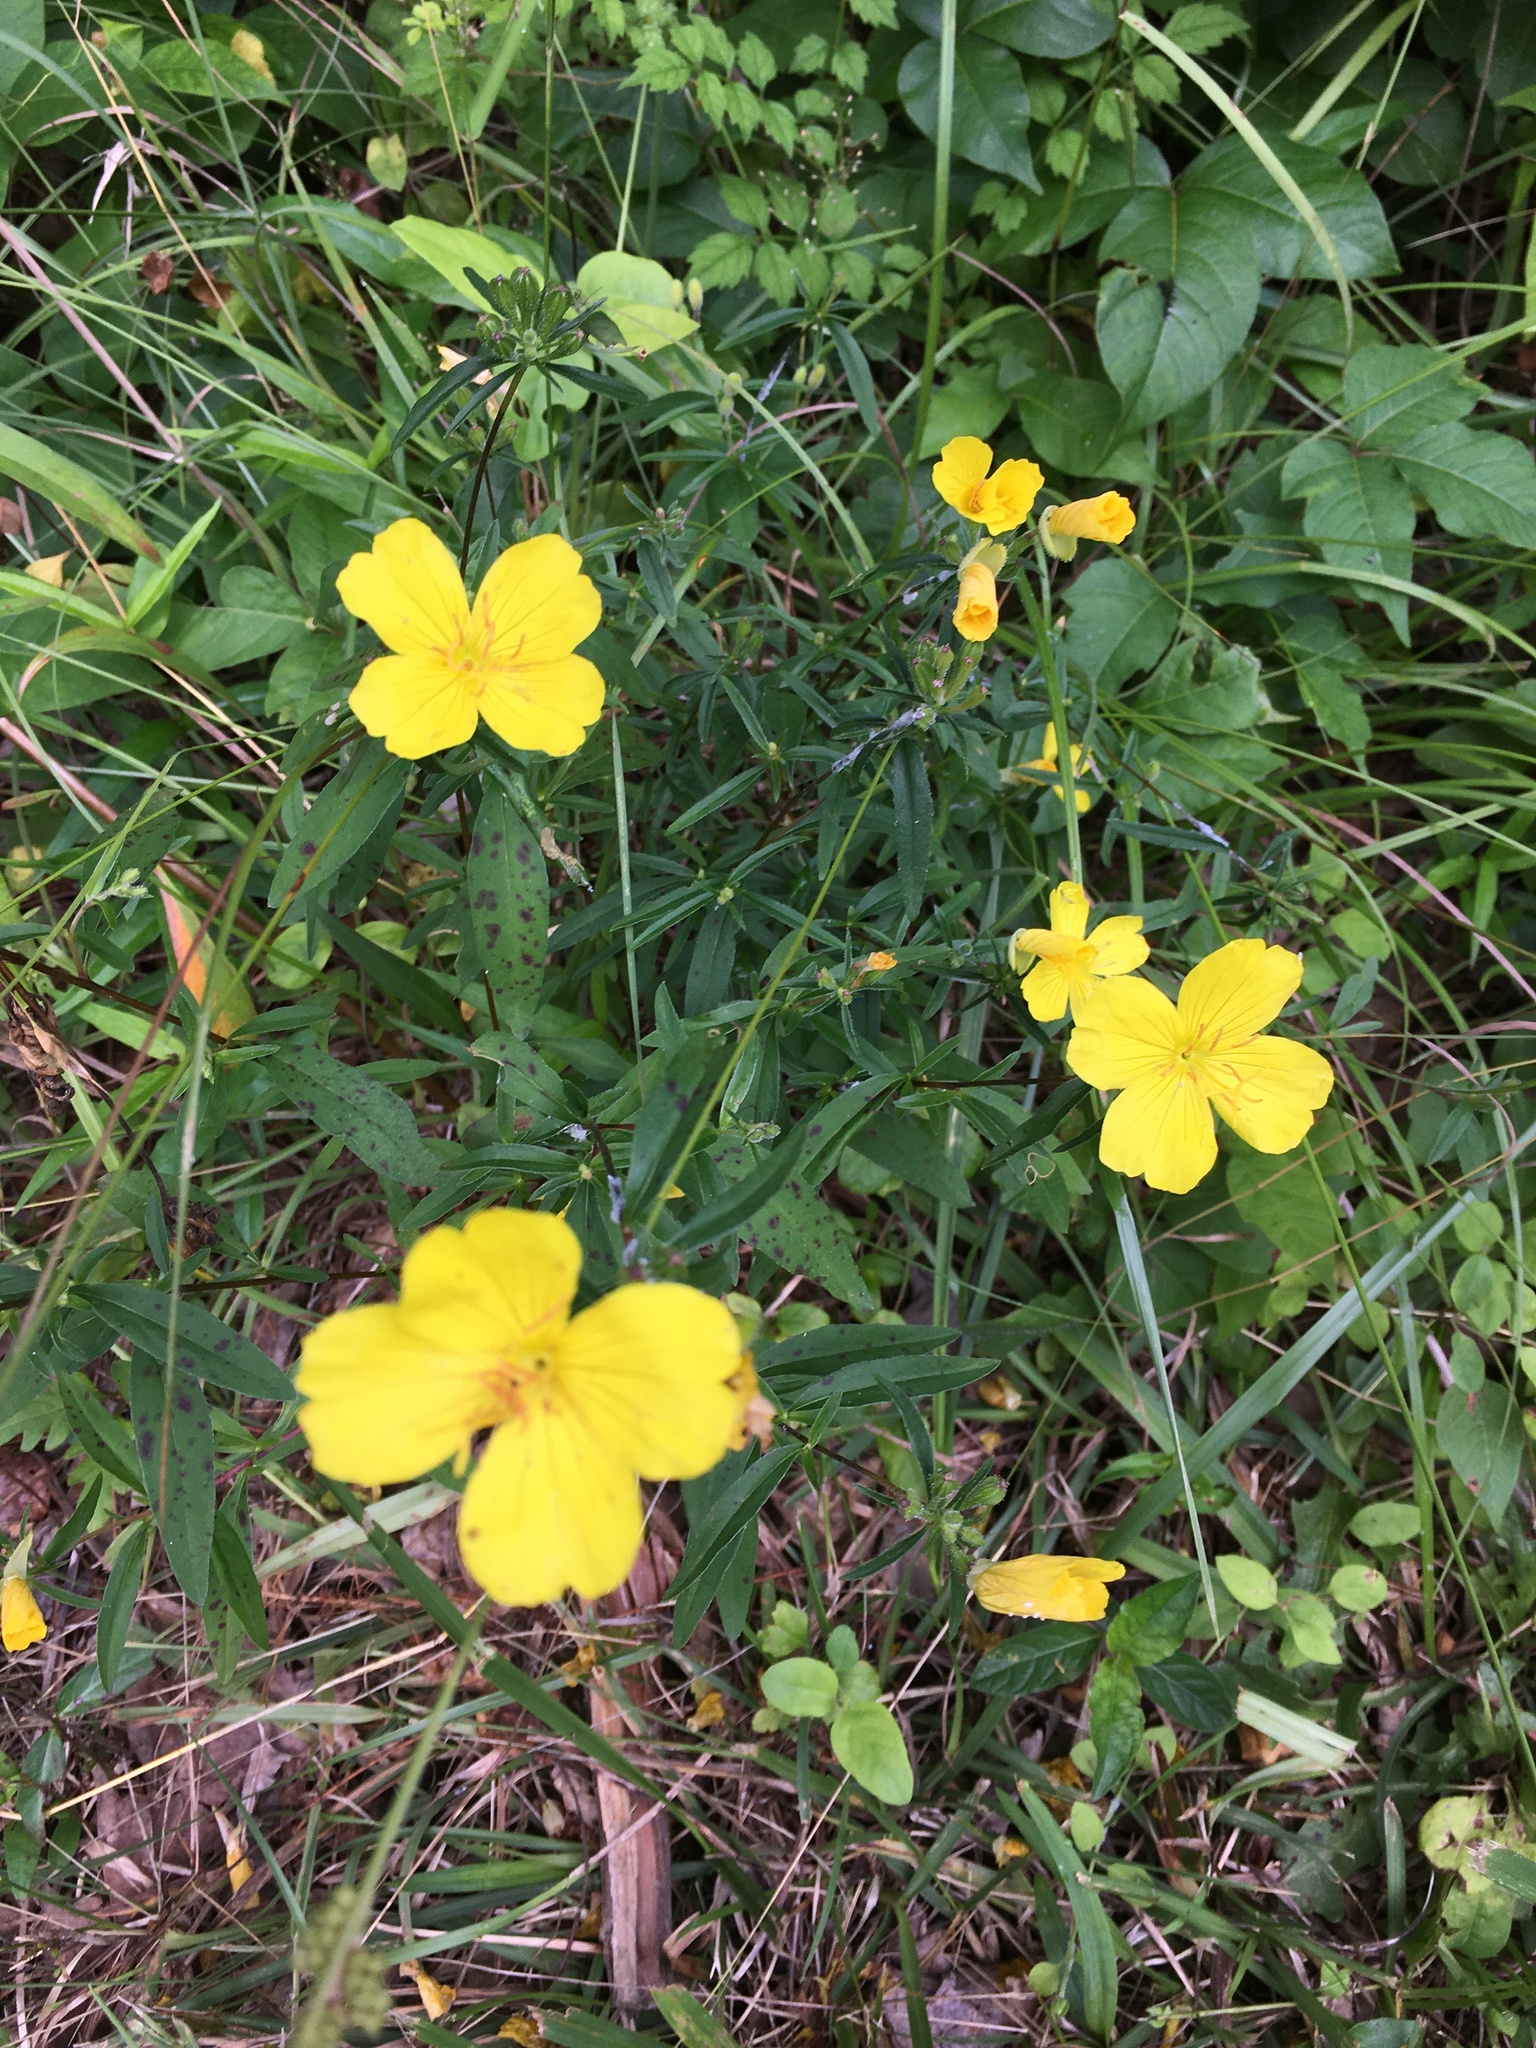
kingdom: Plantae
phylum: Tracheophyta
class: Magnoliopsida
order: Myrtales
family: Onagraceae
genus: Oenothera
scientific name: Oenothera fruticosa
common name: Southern sundrops
